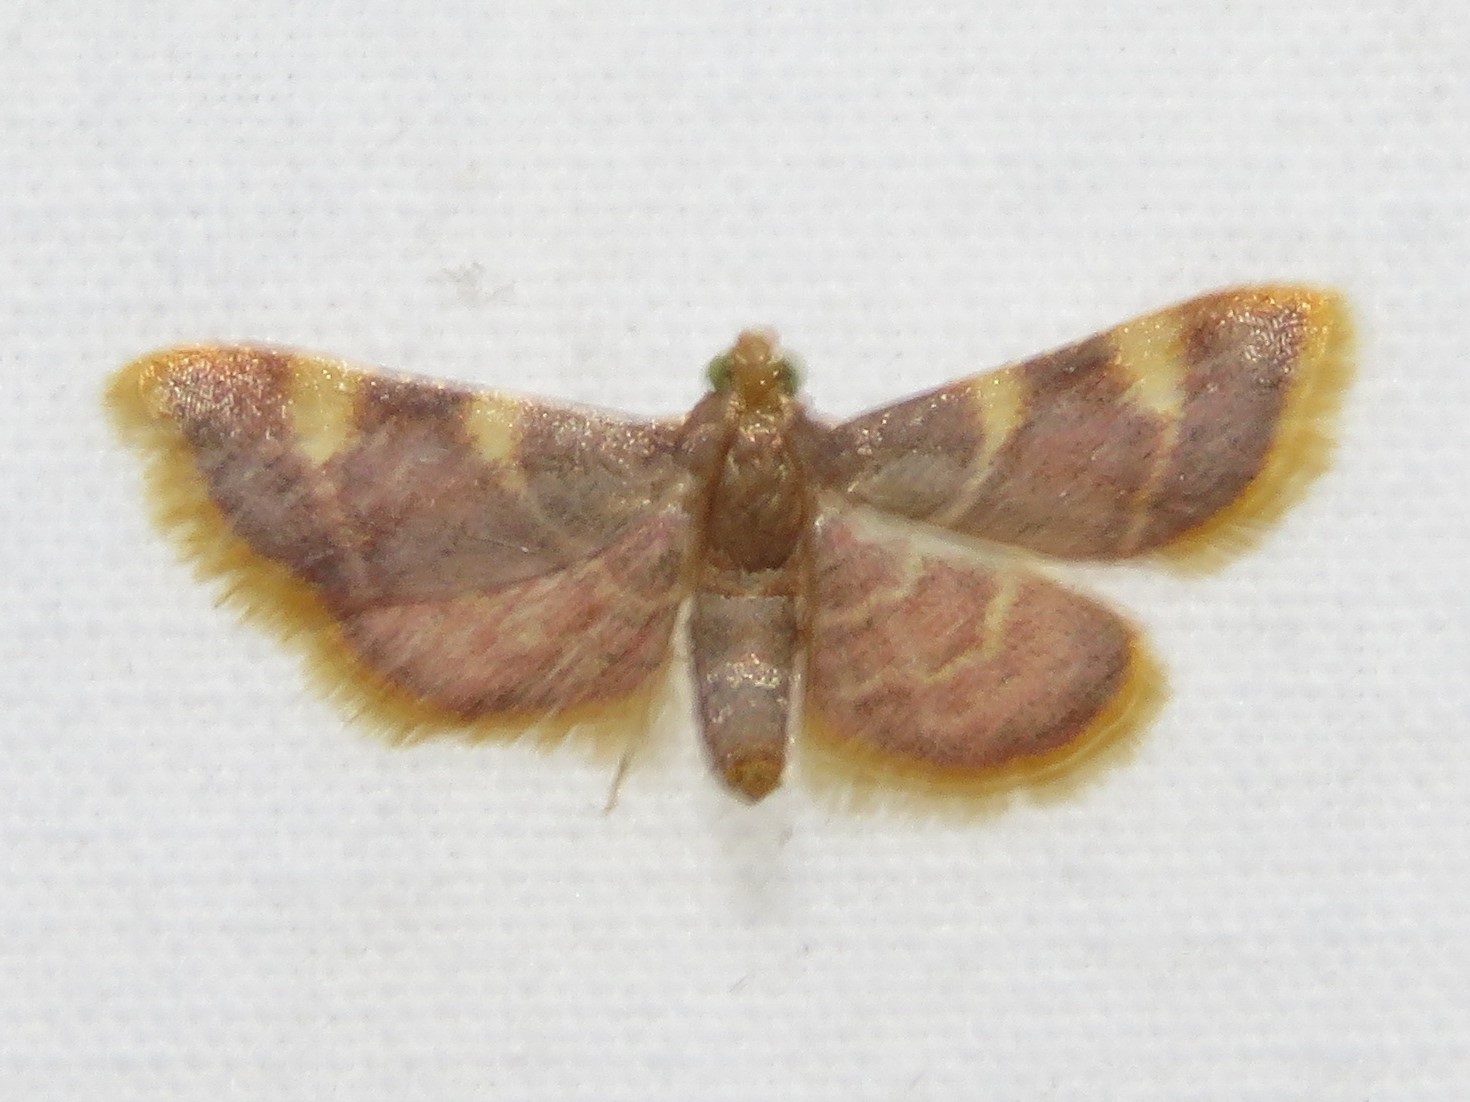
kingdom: Animalia
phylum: Arthropoda
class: Insecta
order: Lepidoptera
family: Pyralidae
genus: Hypsopygia
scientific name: Hypsopygia costalis
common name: Gold triangle
